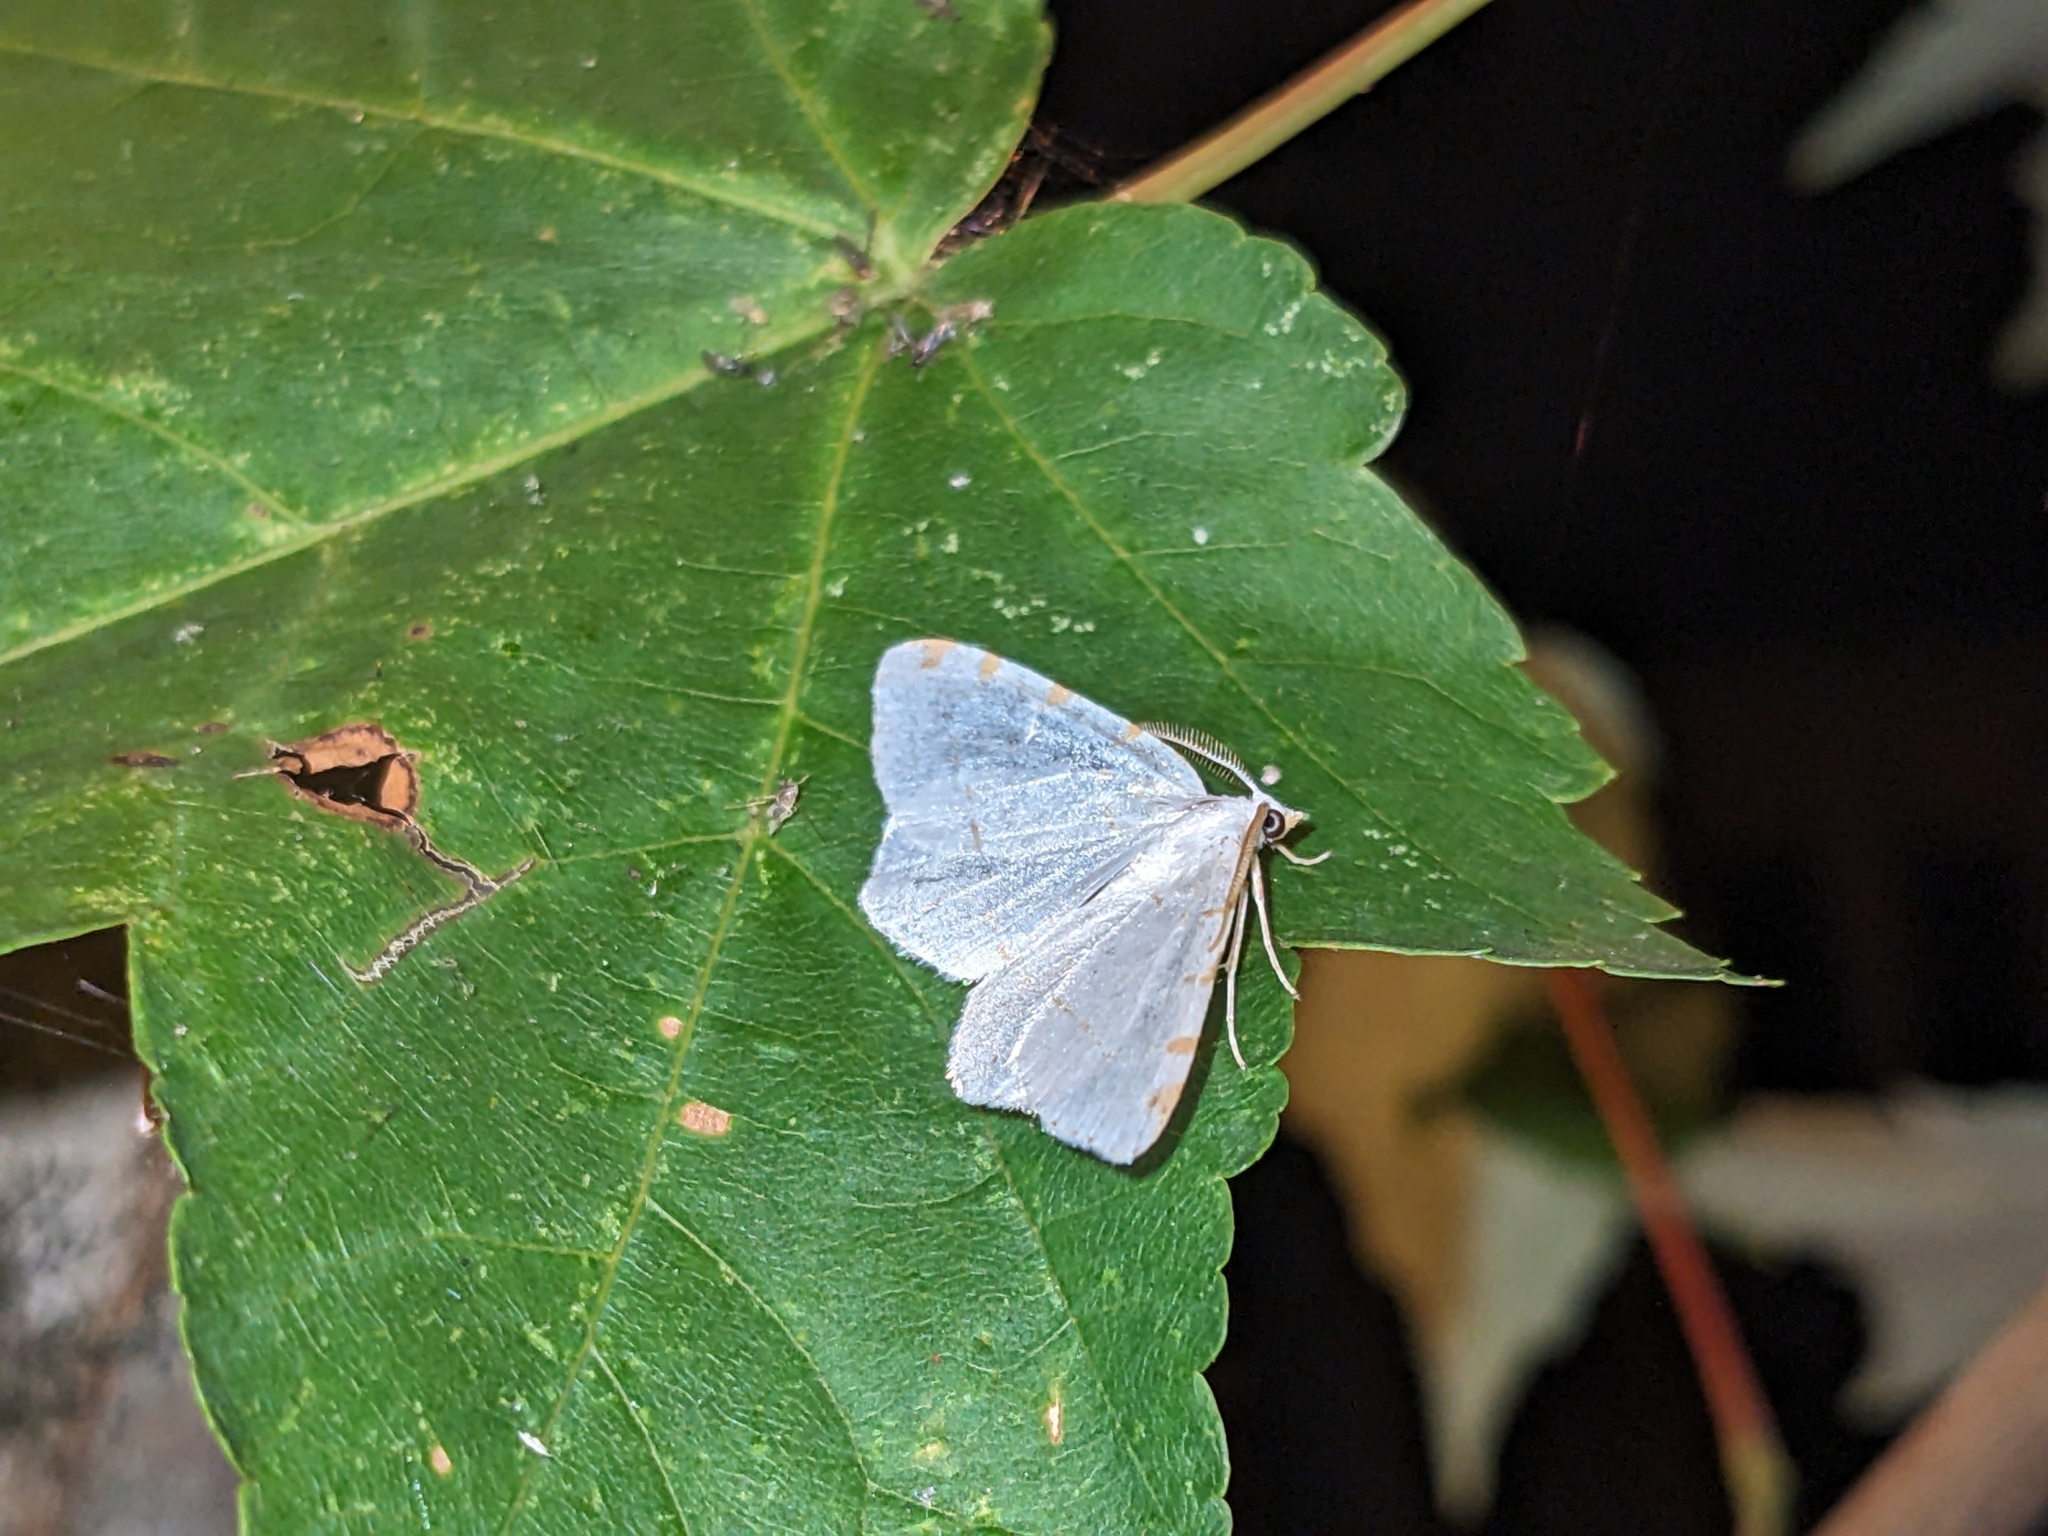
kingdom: Animalia
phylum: Arthropoda
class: Insecta
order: Lepidoptera
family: Geometridae
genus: Macaria
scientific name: Macaria pustularia
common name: Lesser maple spanworm moth
